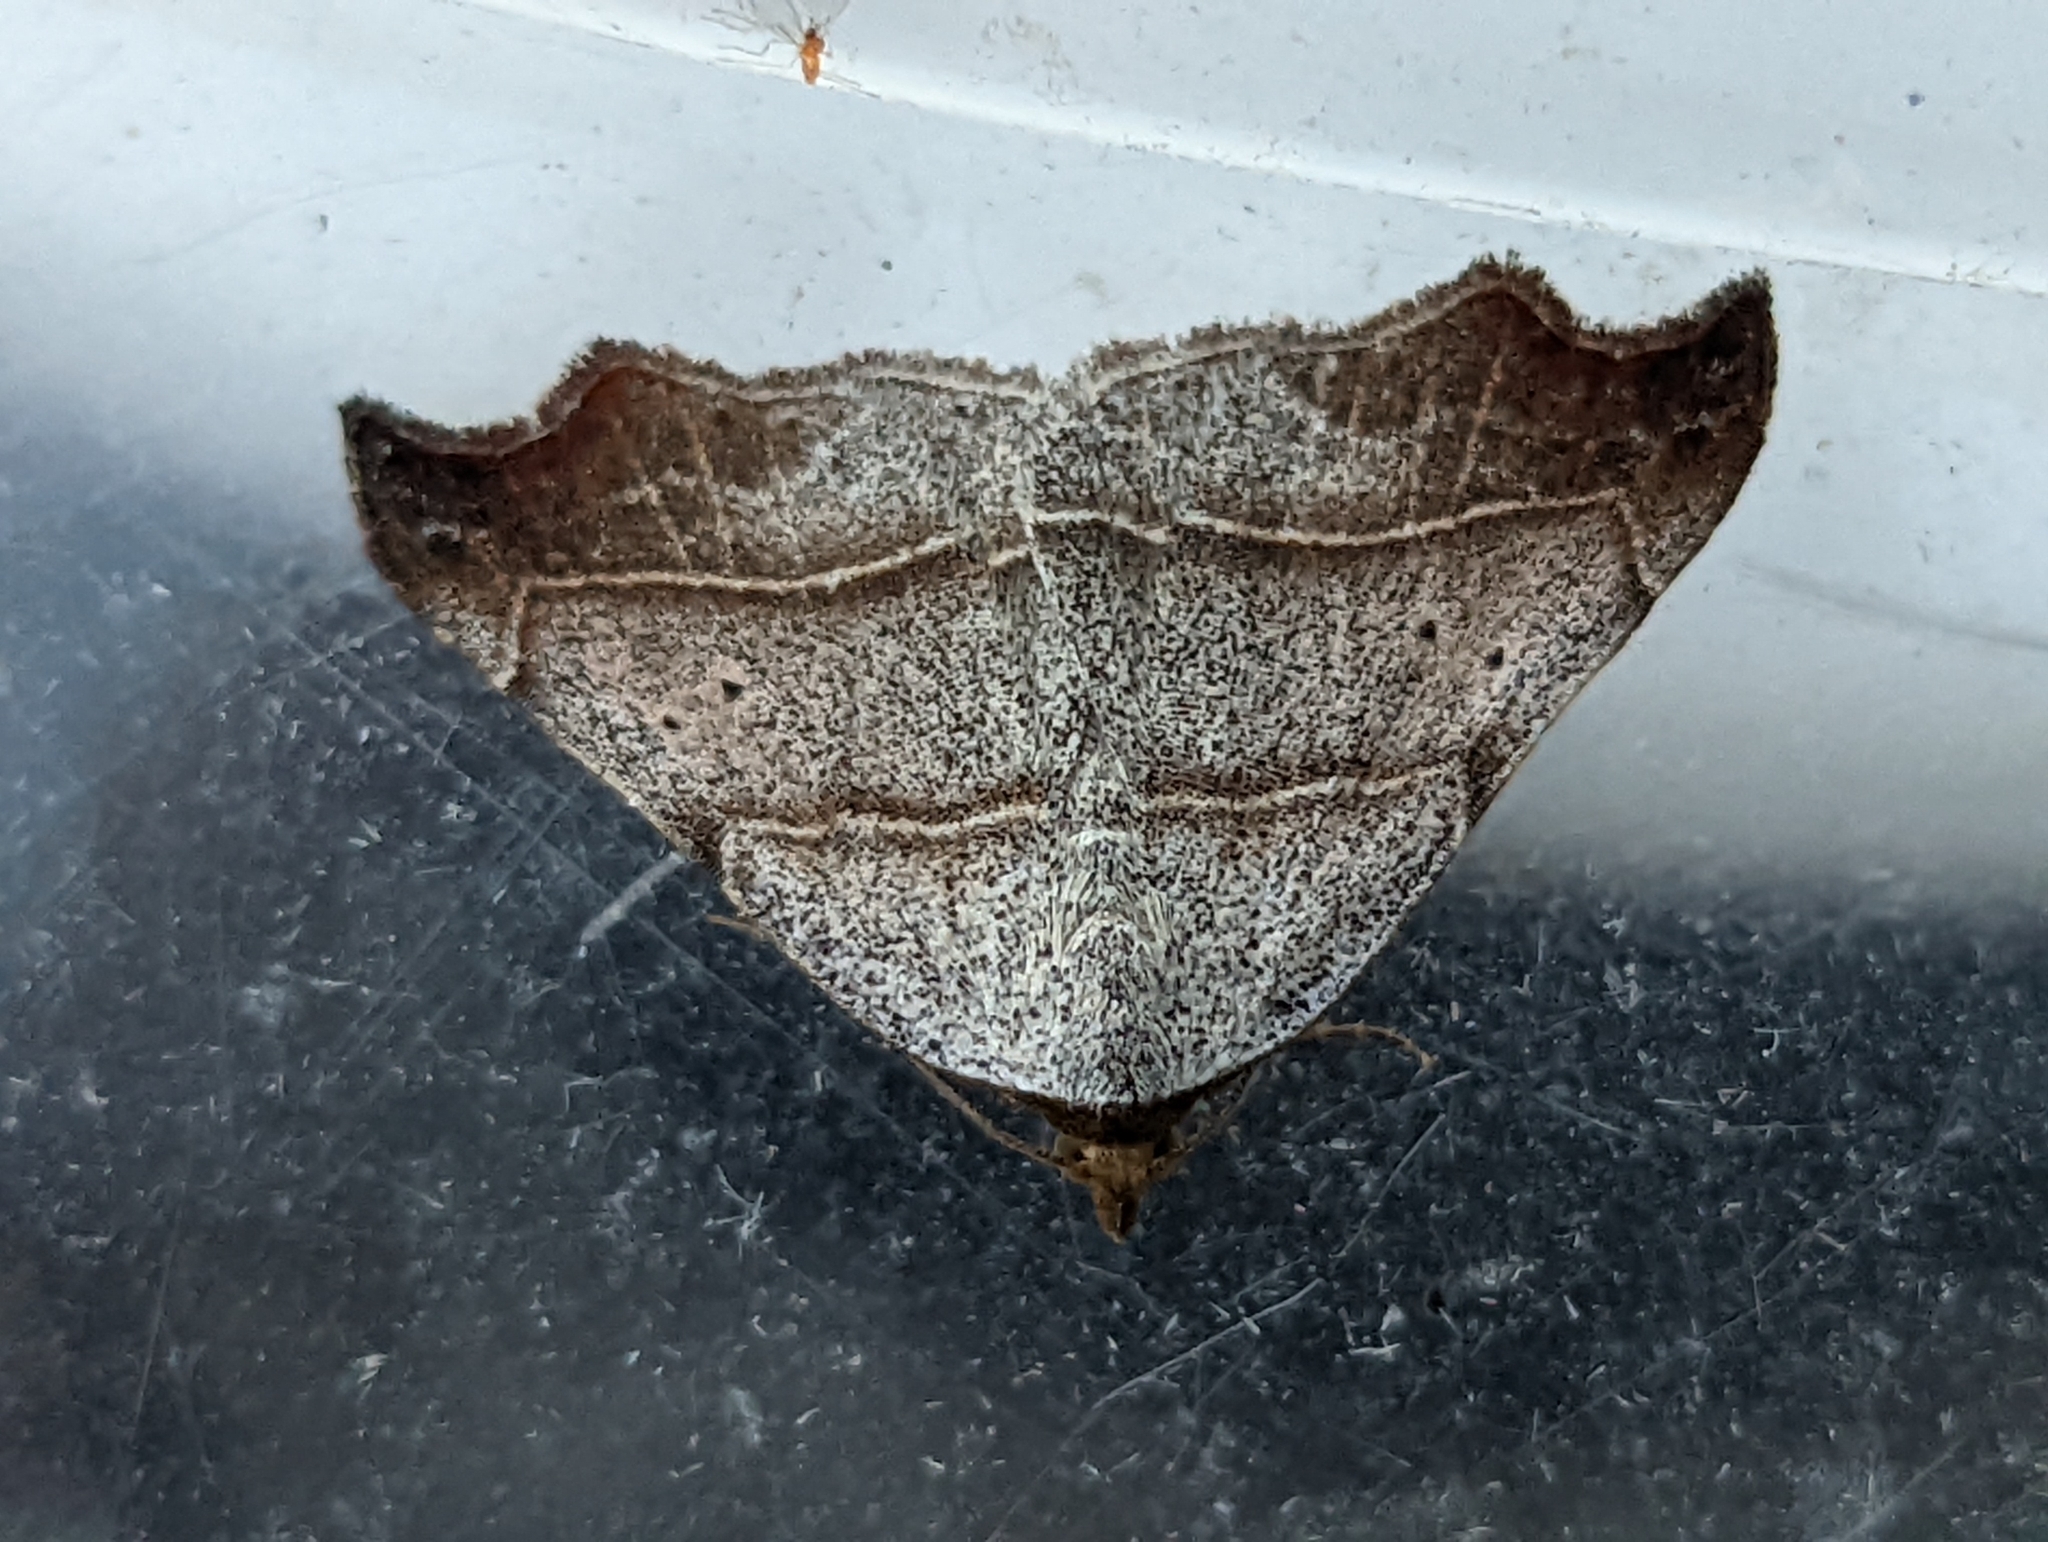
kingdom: Animalia
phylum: Arthropoda
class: Insecta
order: Lepidoptera
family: Erebidae
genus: Laspeyria
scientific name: Laspeyria flexula
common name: Beautiful hook-tip
